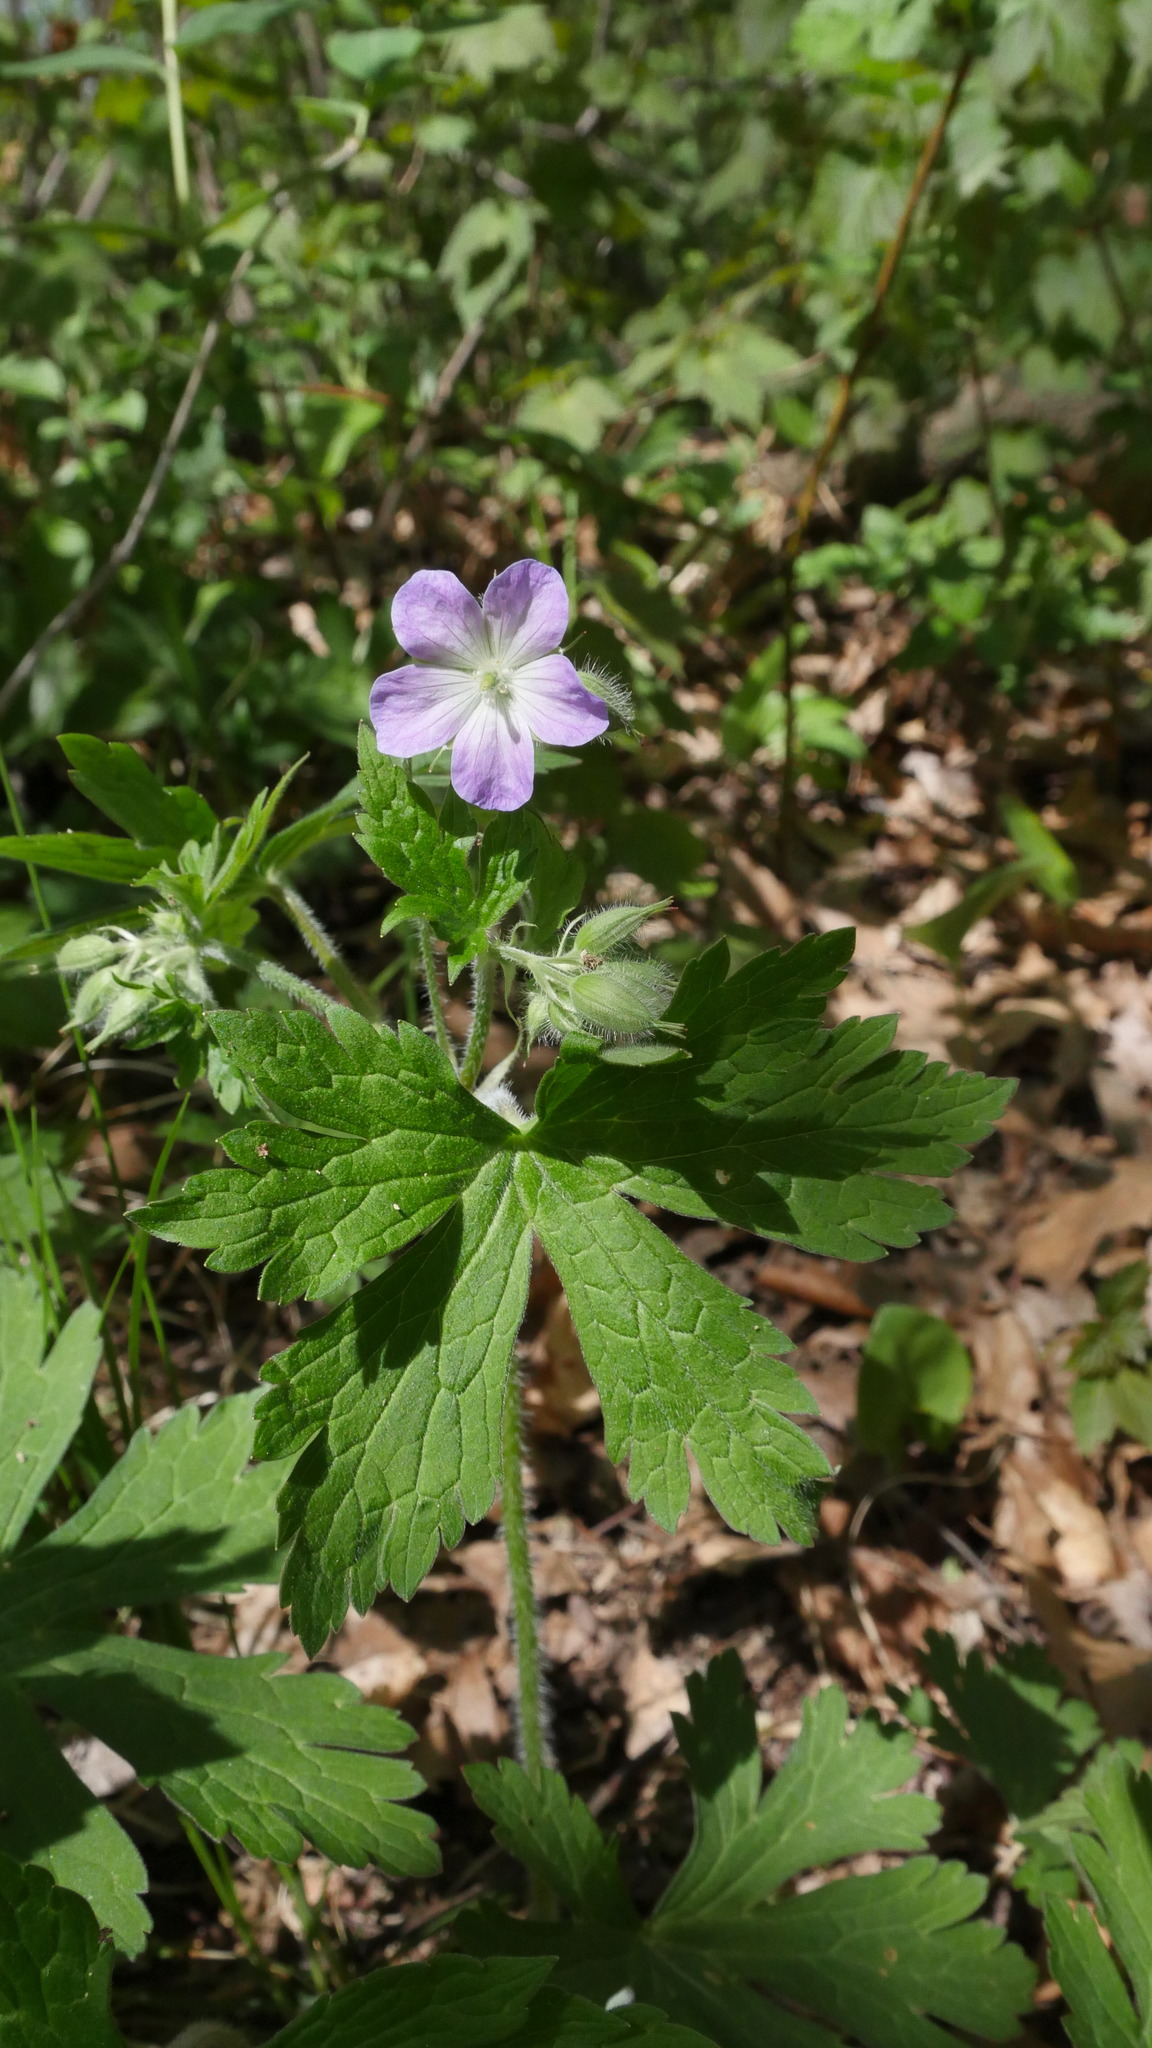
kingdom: Plantae
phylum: Tracheophyta
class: Magnoliopsida
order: Geraniales
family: Geraniaceae
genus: Geranium
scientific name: Geranium maculatum
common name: Spotted geranium
